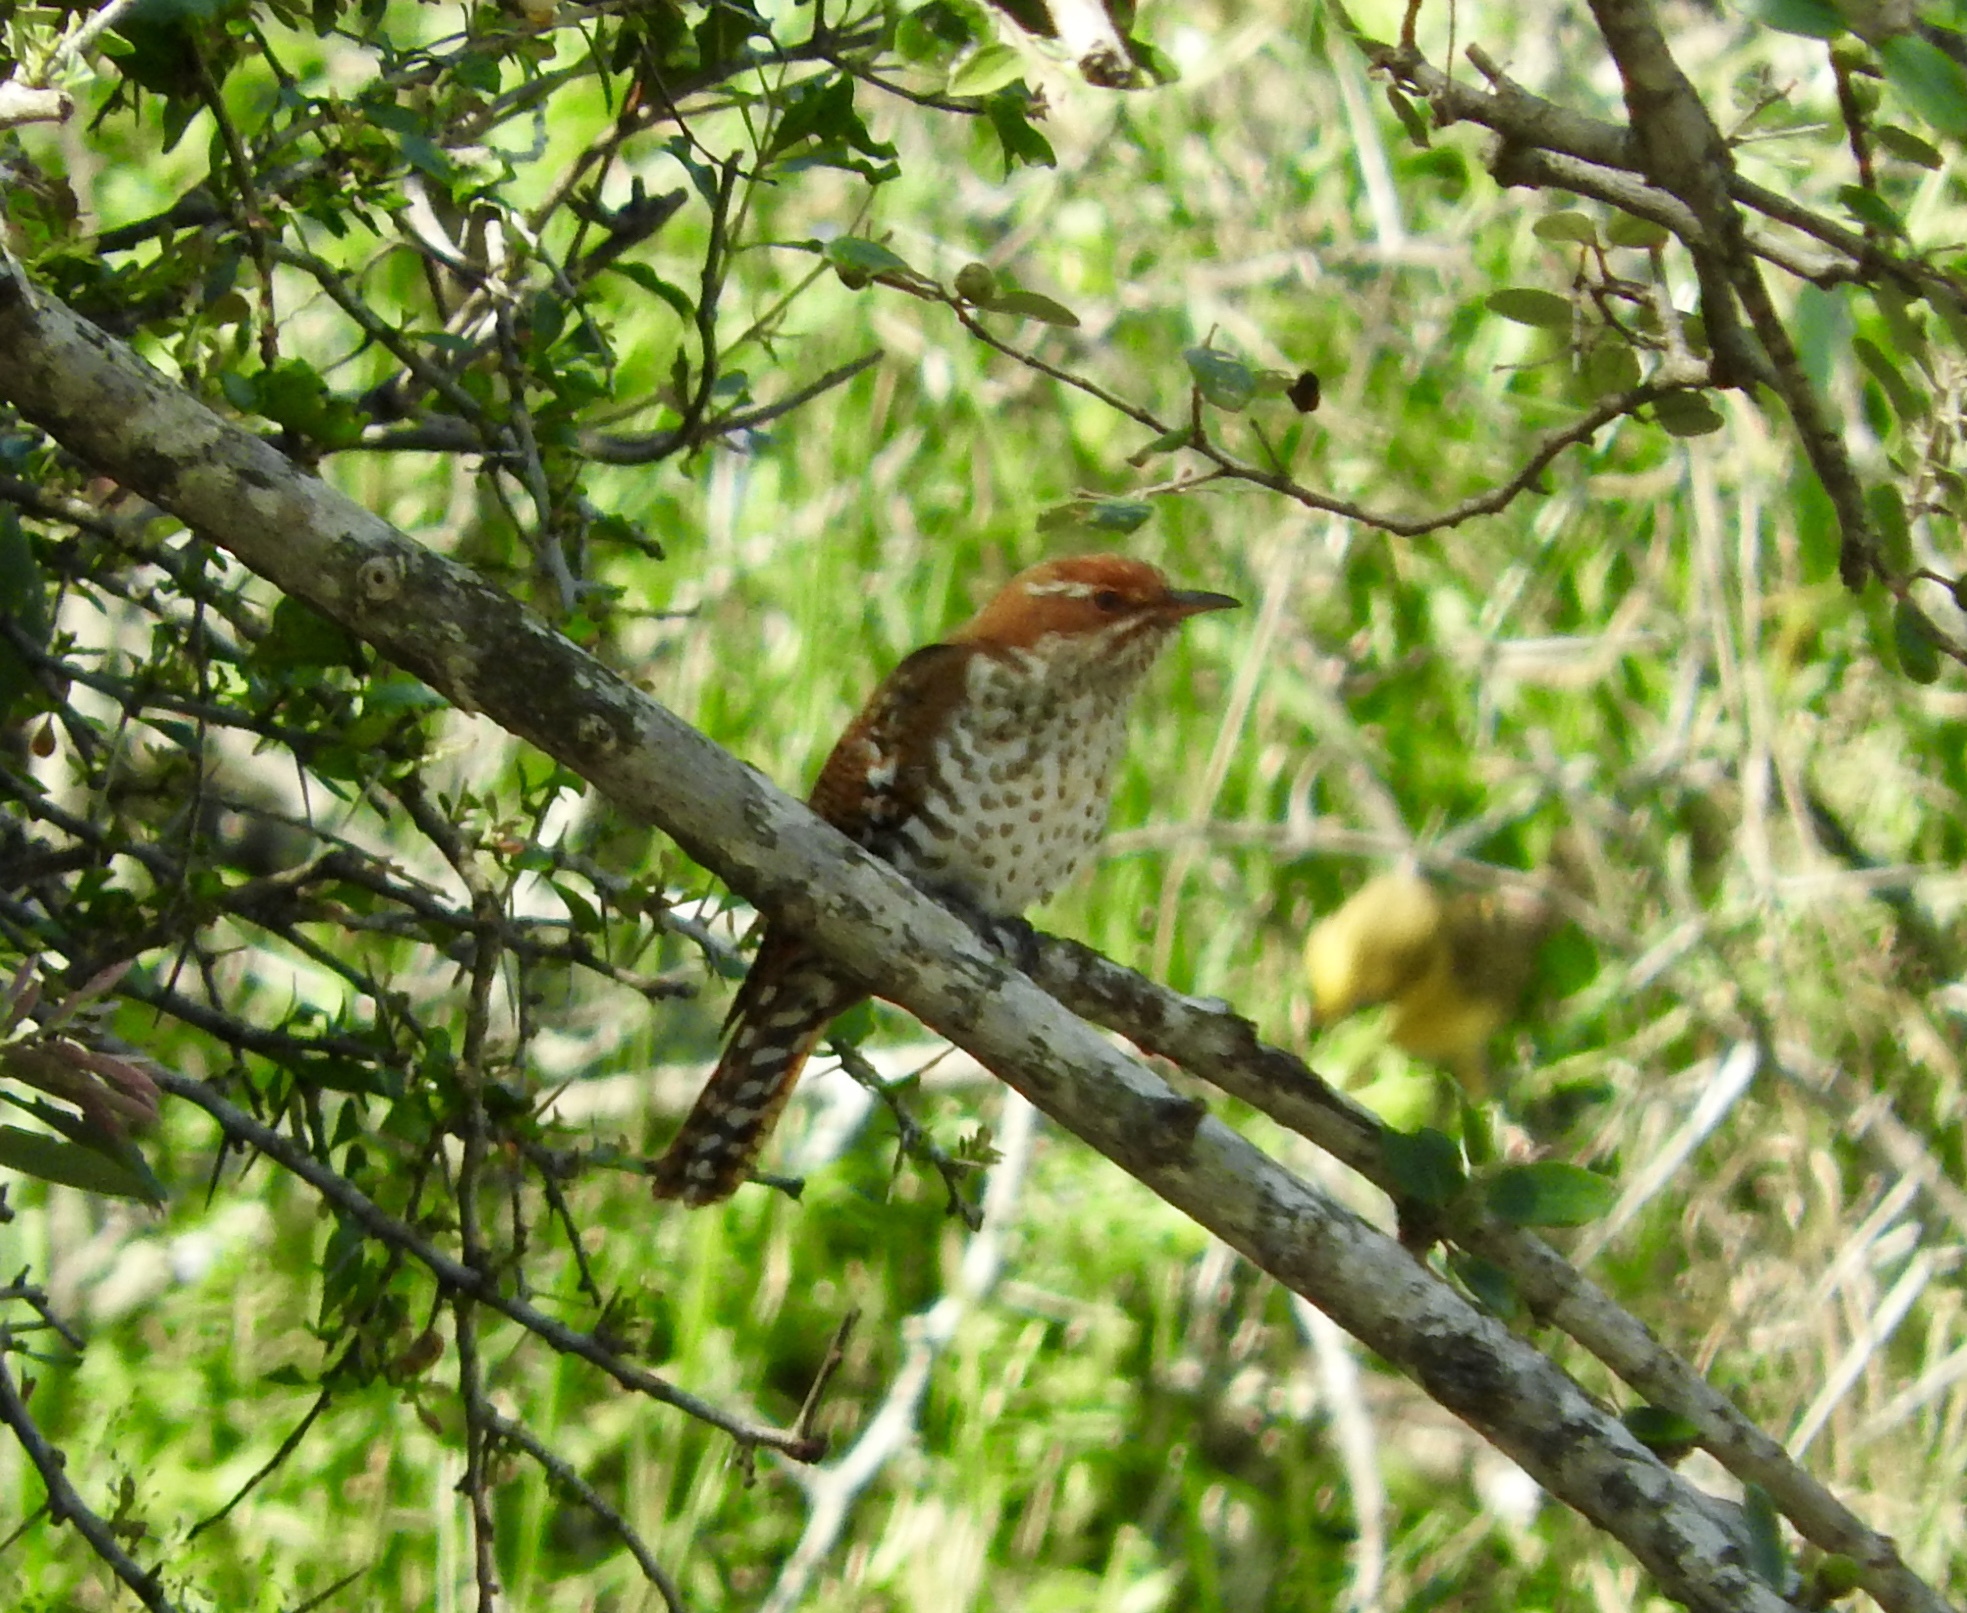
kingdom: Animalia
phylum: Chordata
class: Aves
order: Cuculiformes
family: Cuculidae
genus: Chrysococcyx
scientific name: Chrysococcyx caprius
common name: Diederik cuckoo
